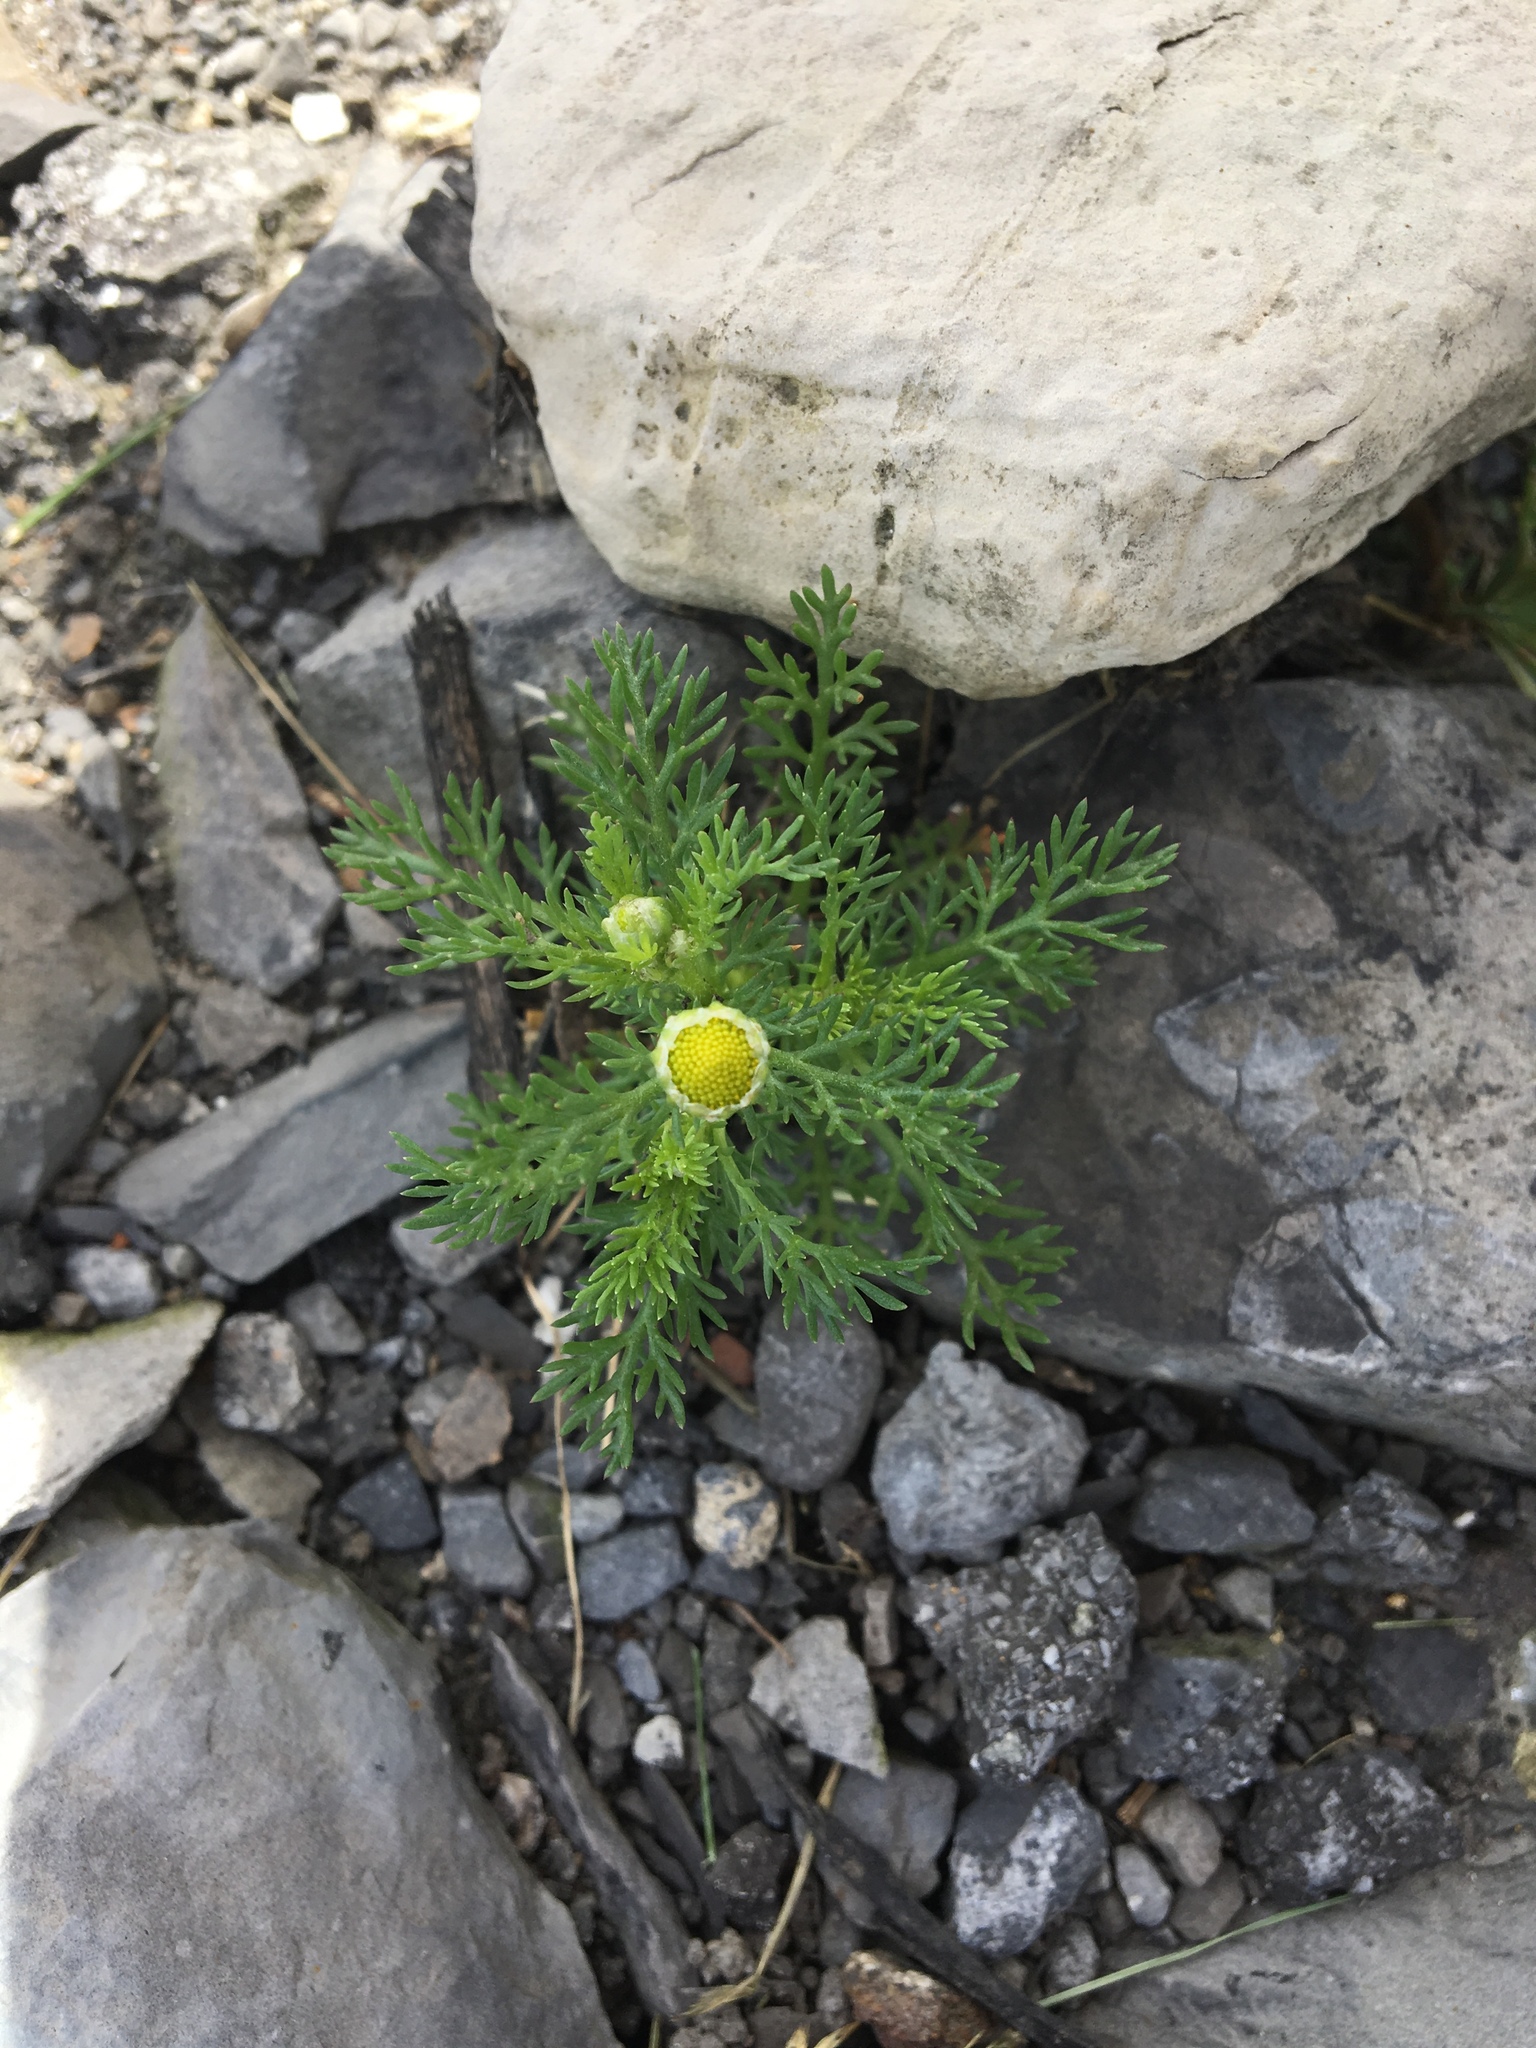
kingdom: Plantae
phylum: Tracheophyta
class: Magnoliopsida
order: Asterales
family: Asteraceae
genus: Matricaria
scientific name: Matricaria discoidea
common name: Disc mayweed
